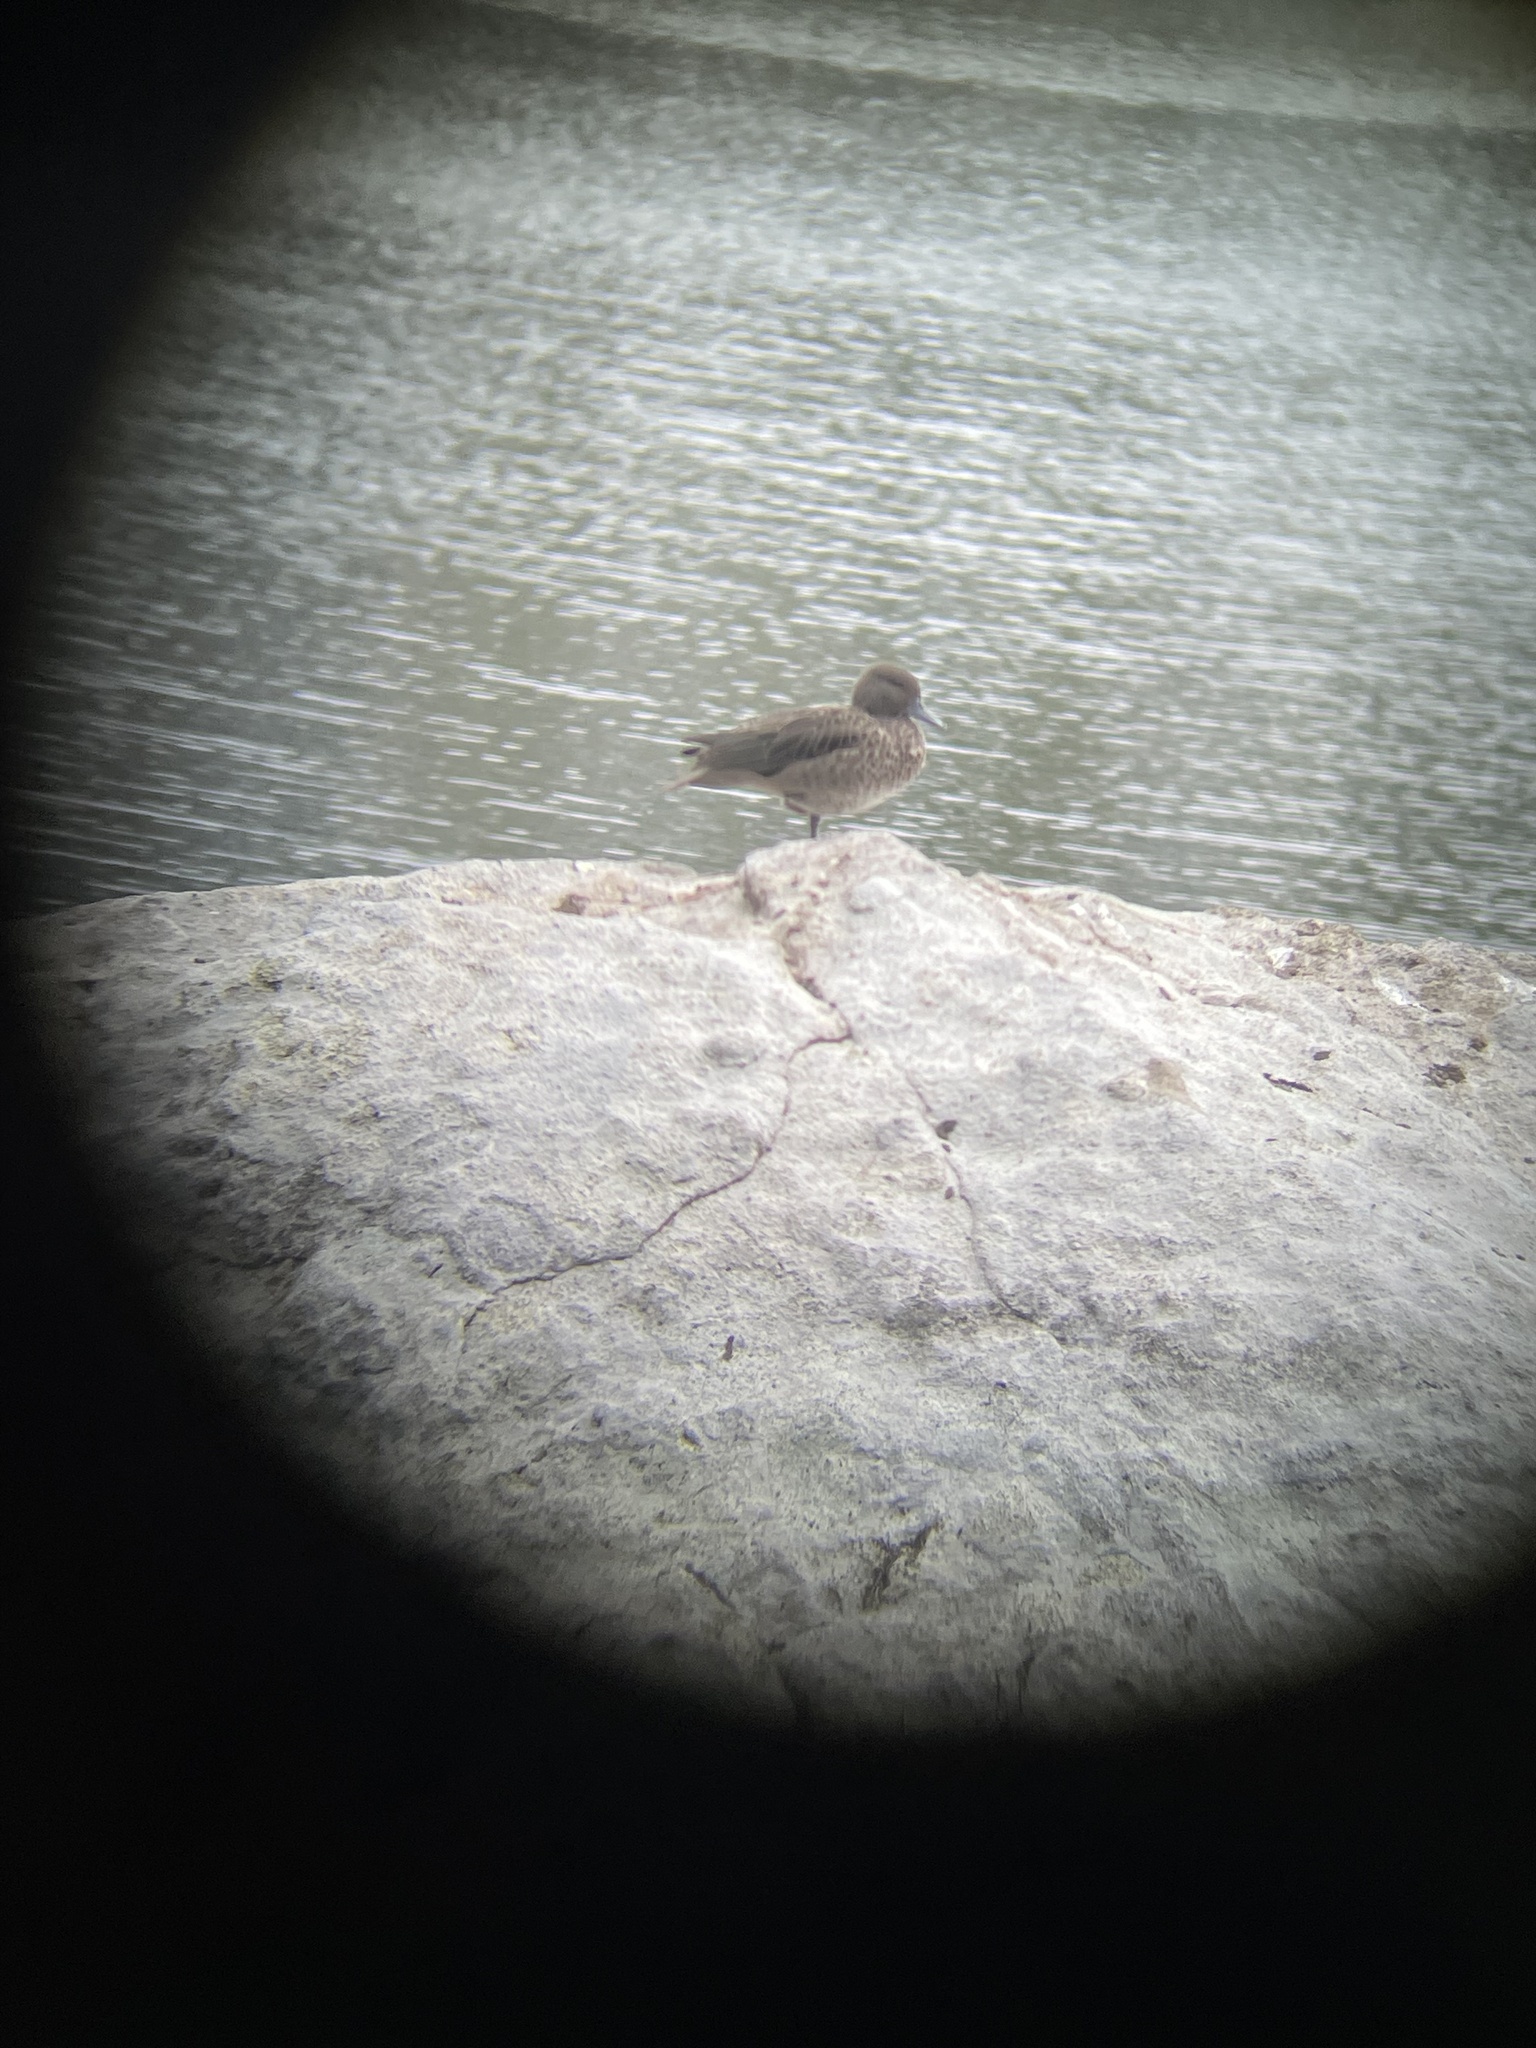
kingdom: Animalia
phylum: Chordata
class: Aves
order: Anseriformes
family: Anatidae
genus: Anas
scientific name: Anas andium
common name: Andean teal
